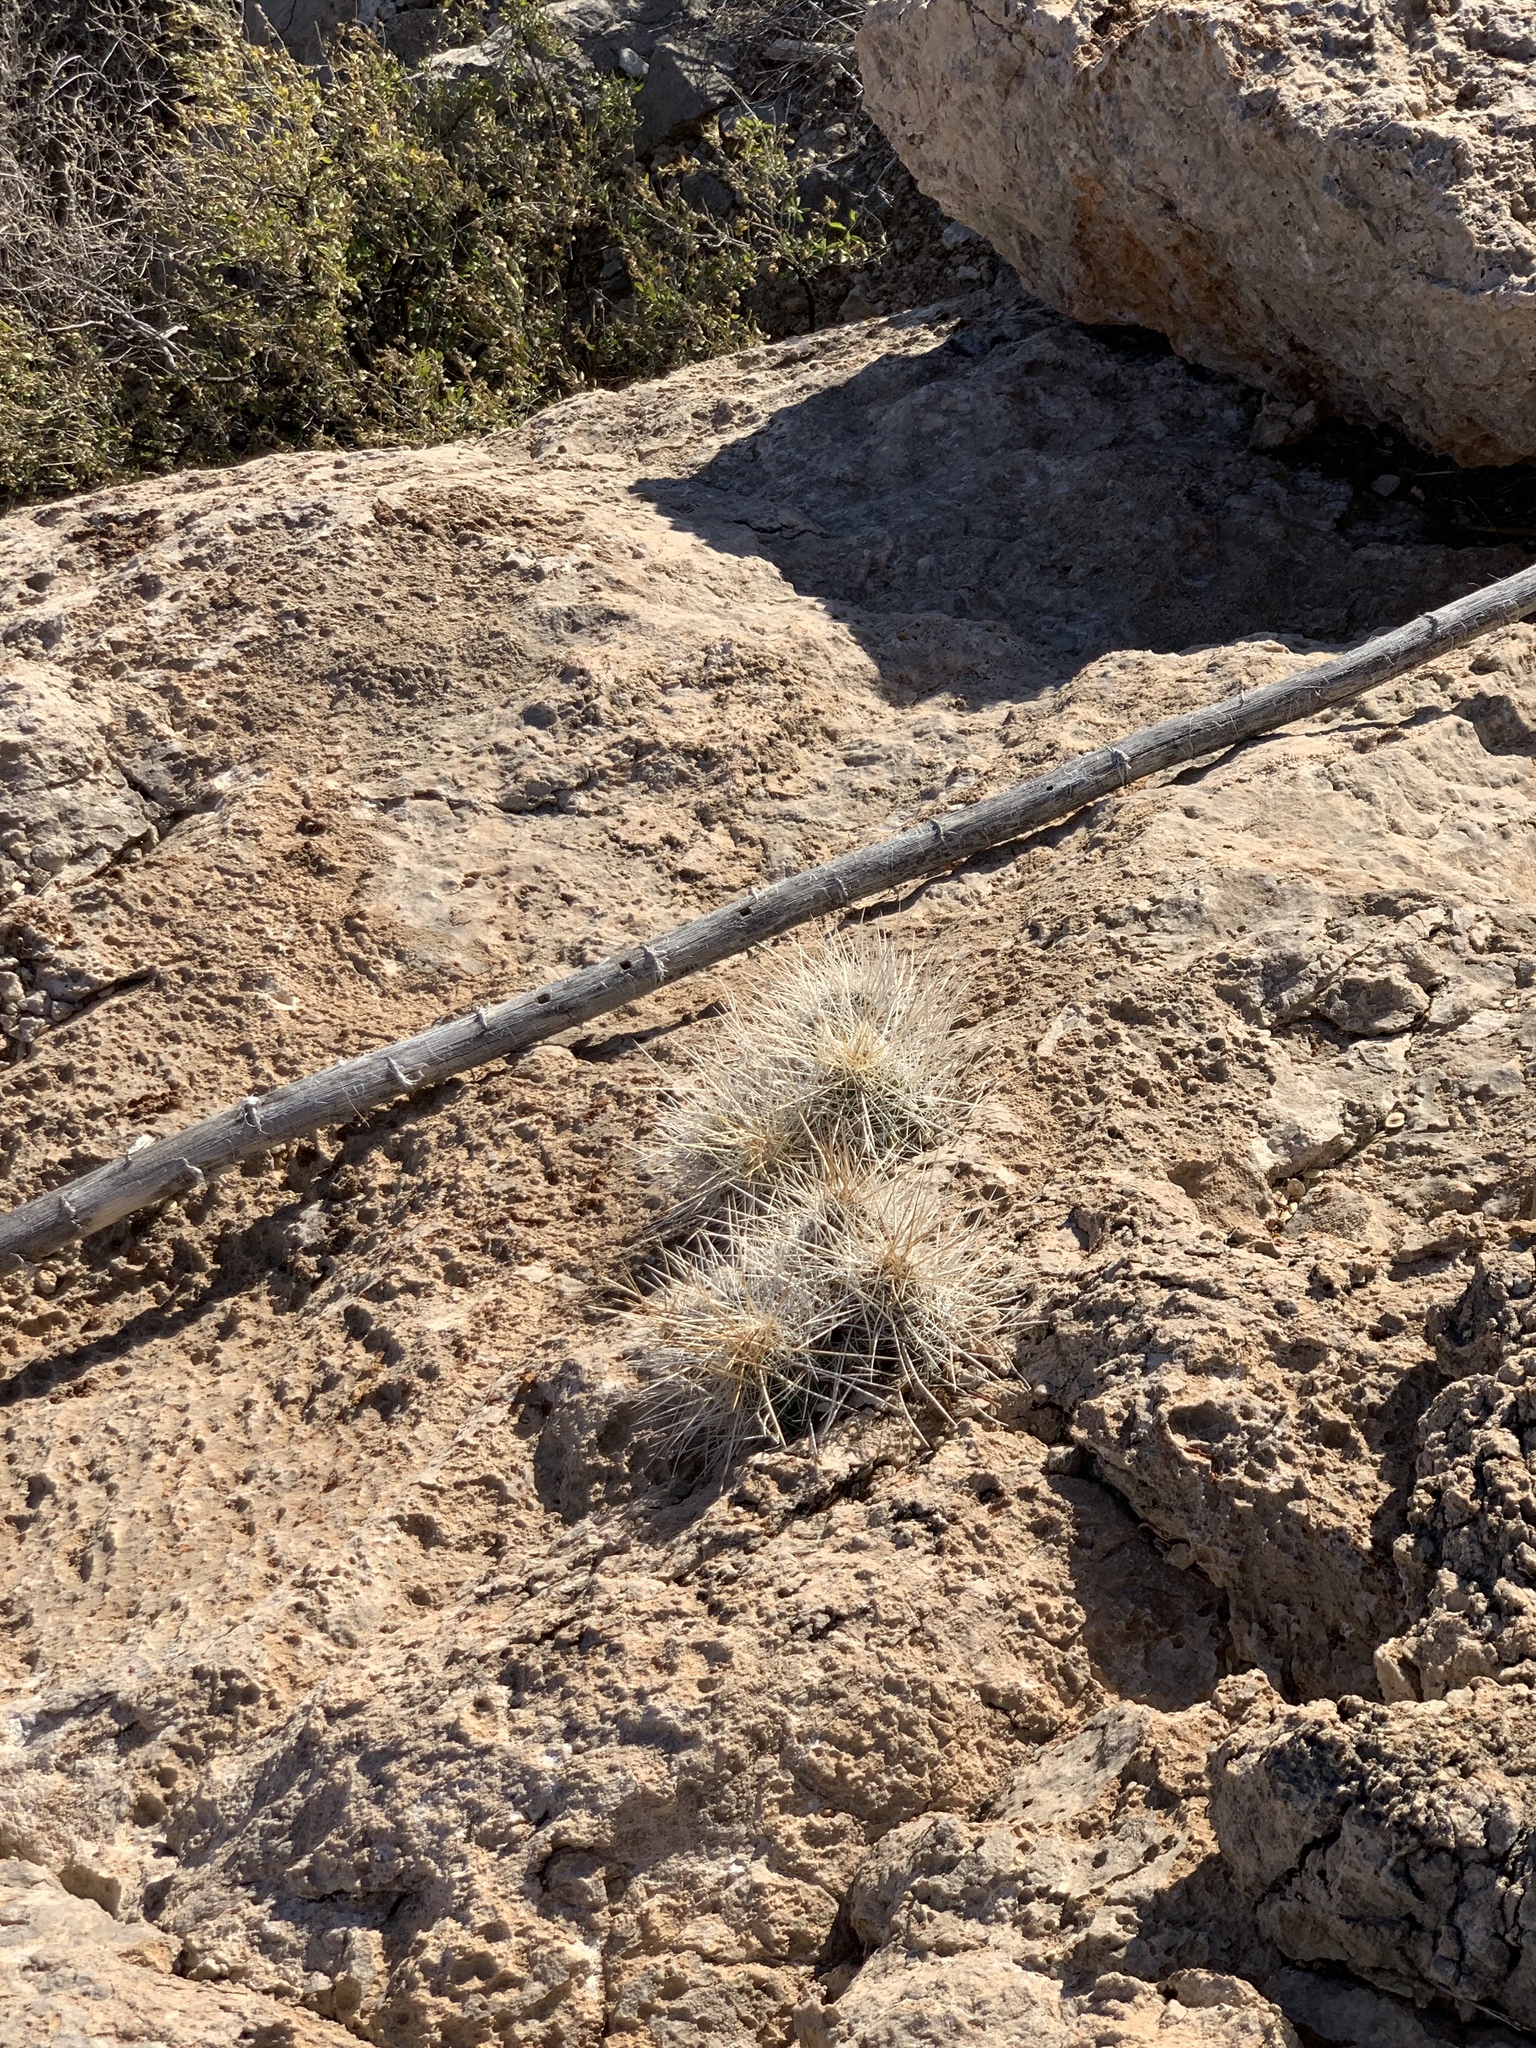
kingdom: Plantae
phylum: Tracheophyta
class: Magnoliopsida
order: Caryophyllales
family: Cactaceae
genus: Echinocereus
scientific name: Echinocereus stramineus
